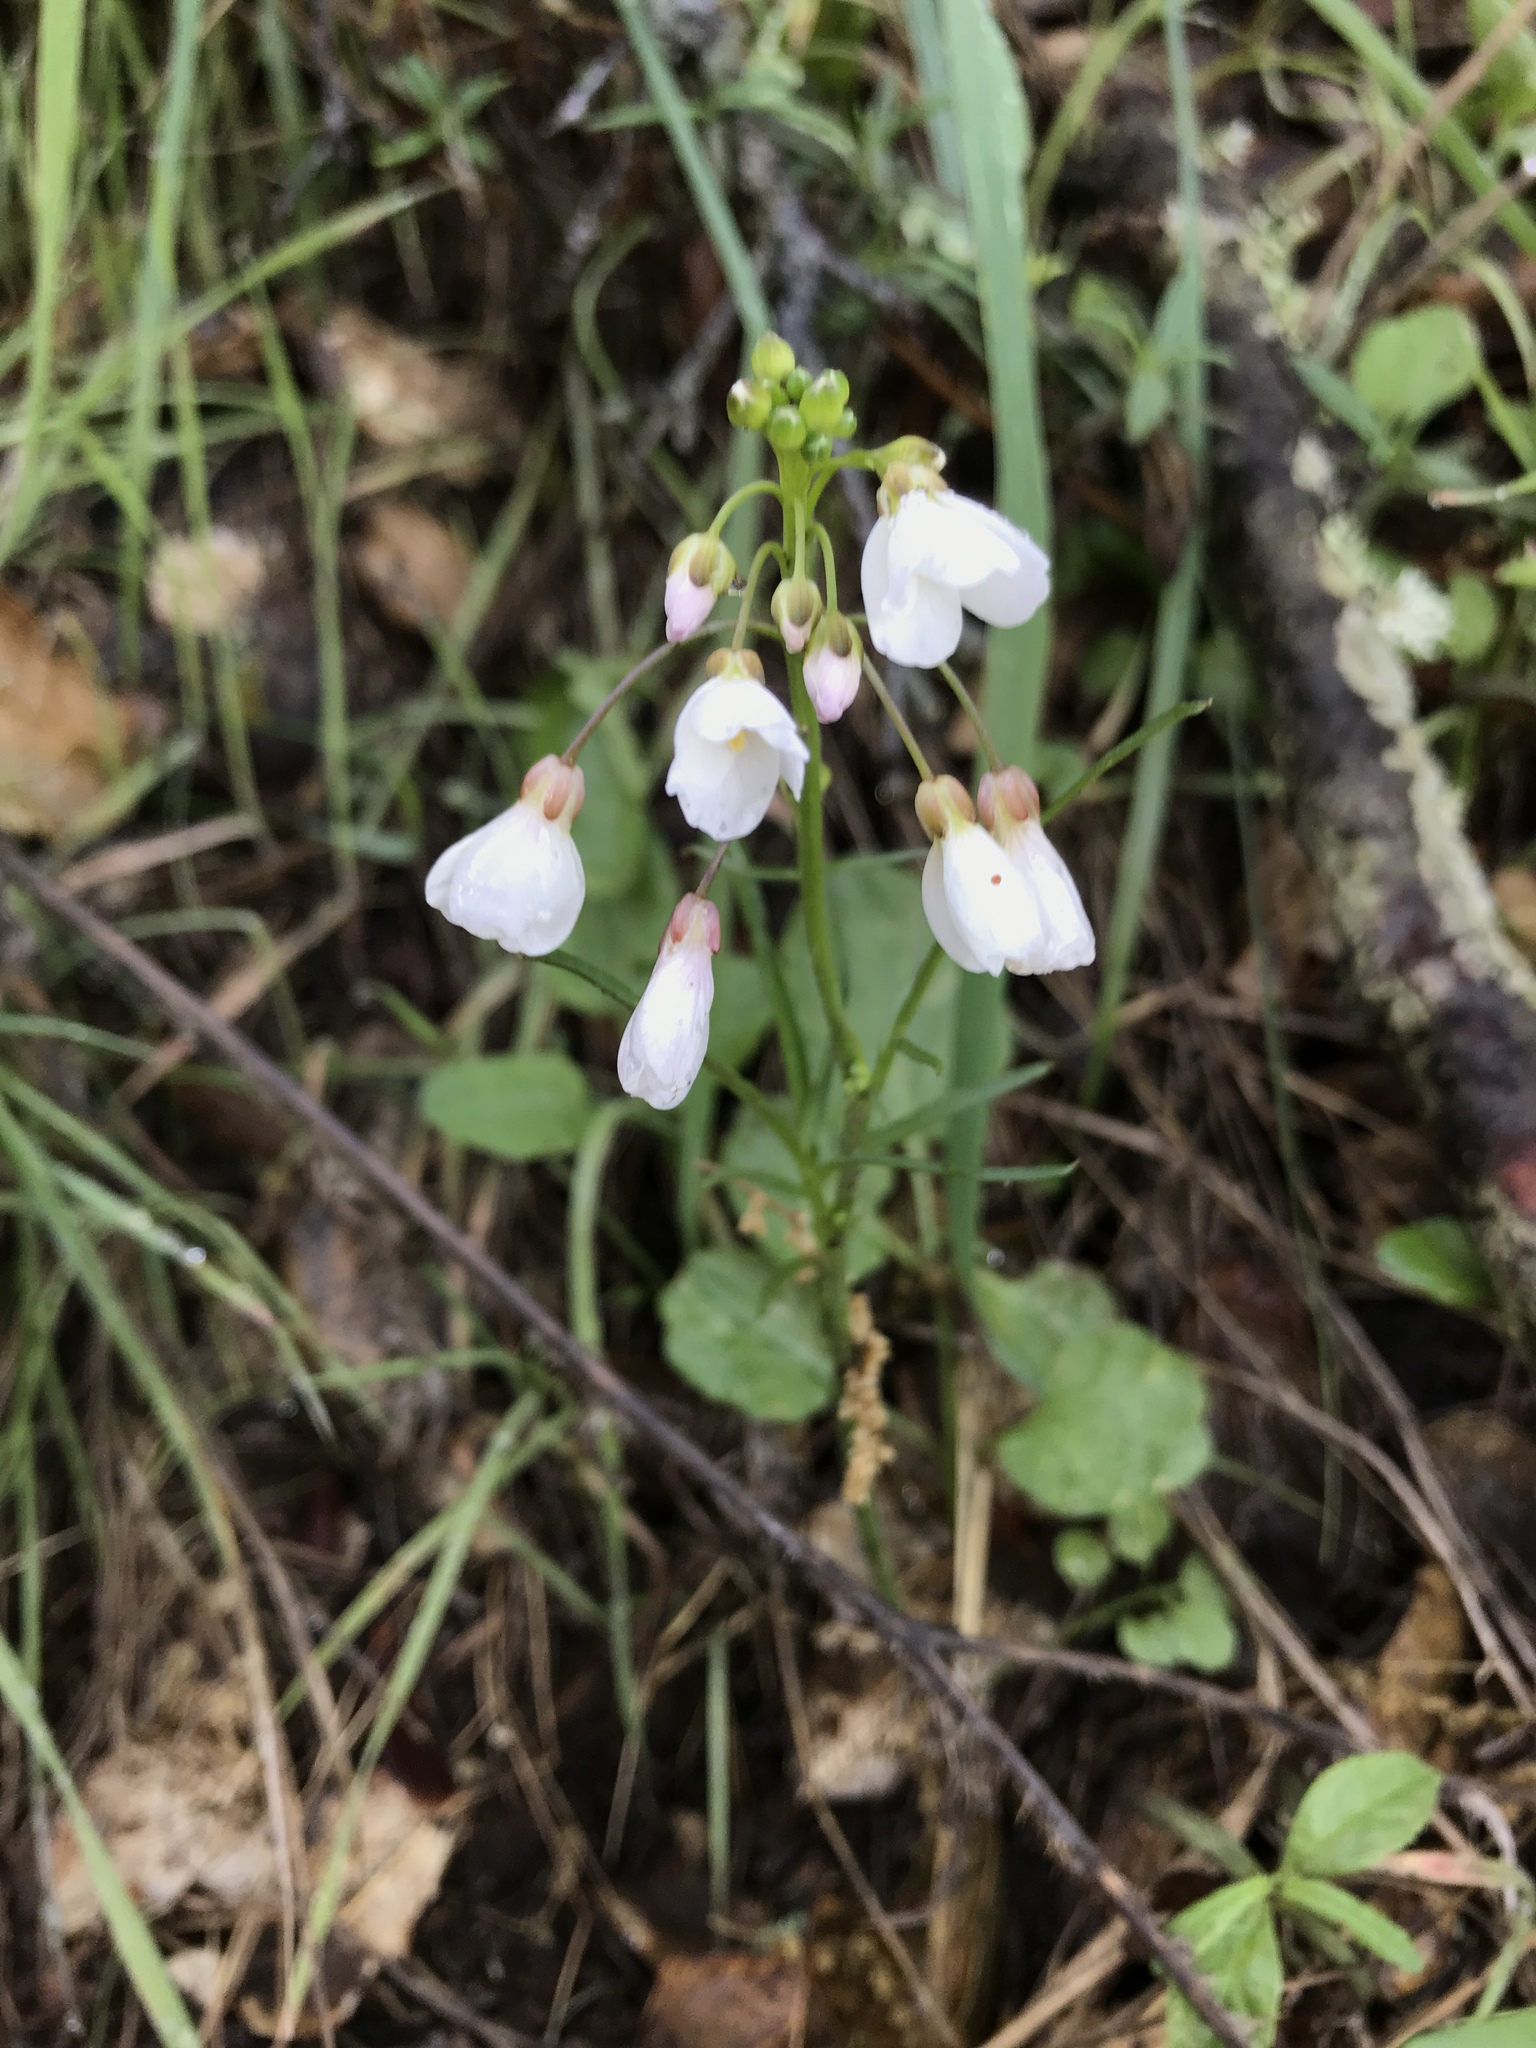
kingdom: Plantae
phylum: Tracheophyta
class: Magnoliopsida
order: Brassicales
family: Brassicaceae
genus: Cardamine
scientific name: Cardamine californica
